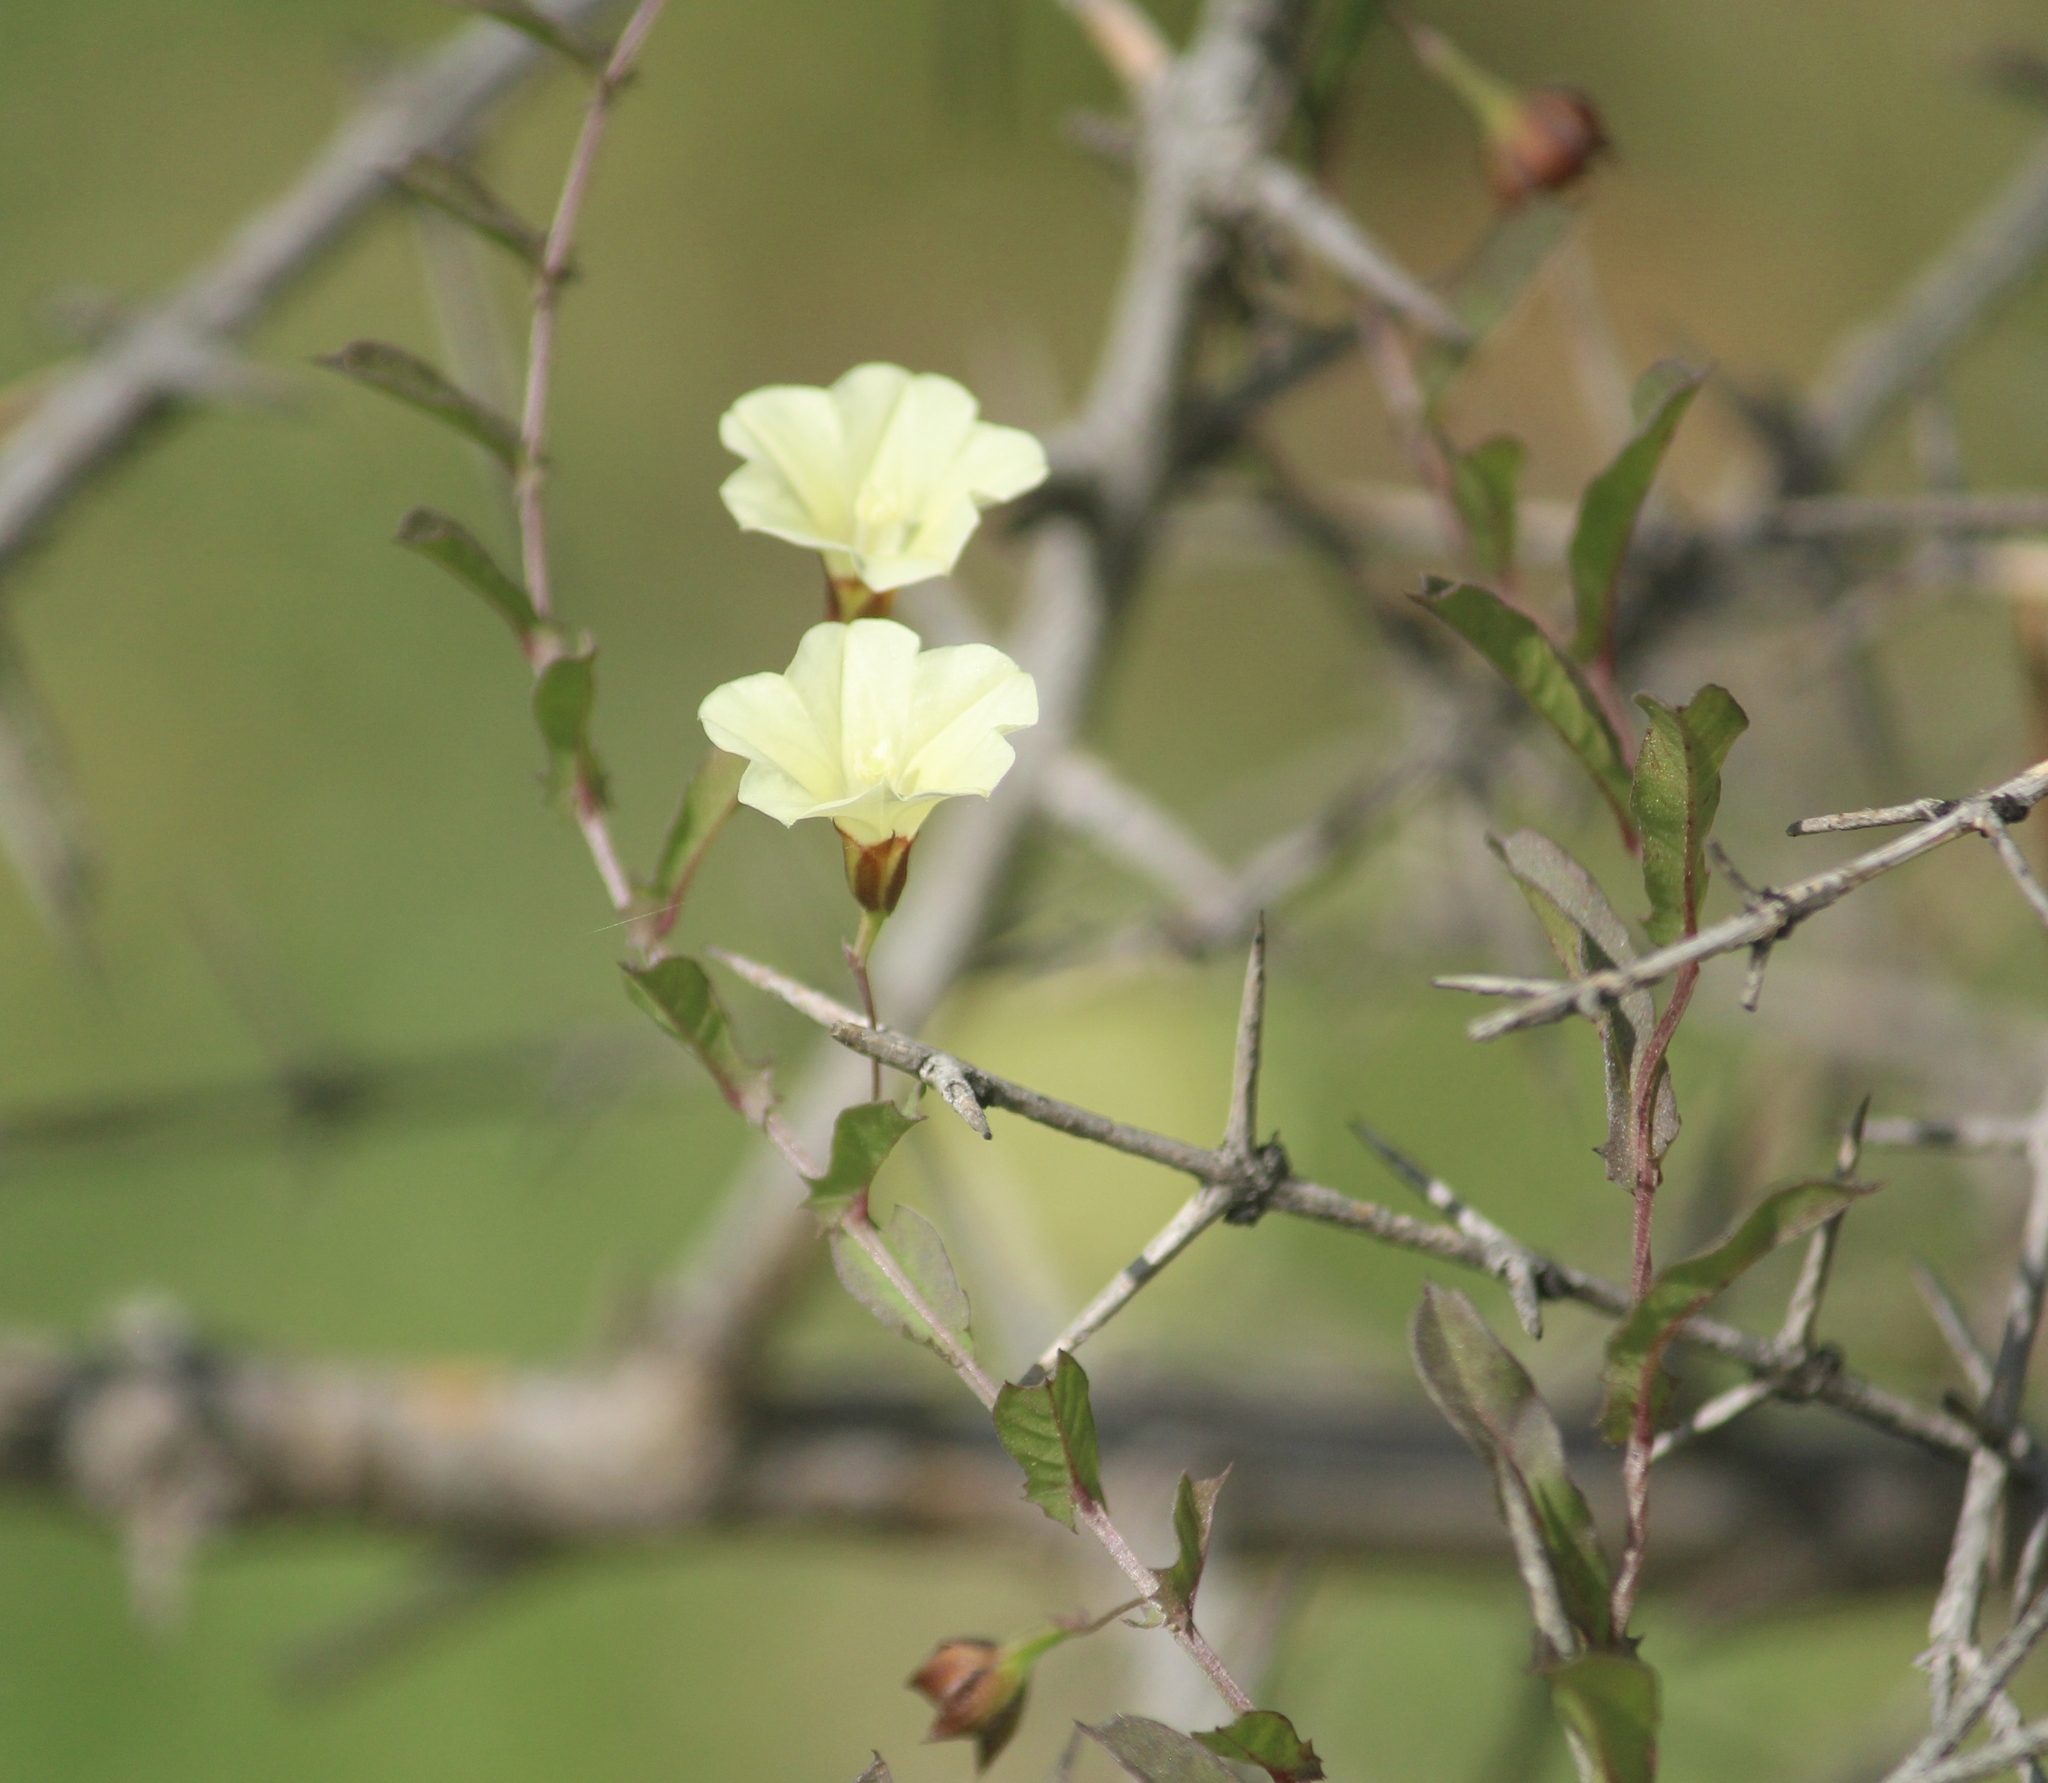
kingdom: Plantae
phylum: Tracheophyta
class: Magnoliopsida
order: Solanales
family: Convolvulaceae
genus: Xenostegia
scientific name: Xenostegia tridentata
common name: African morningvine
